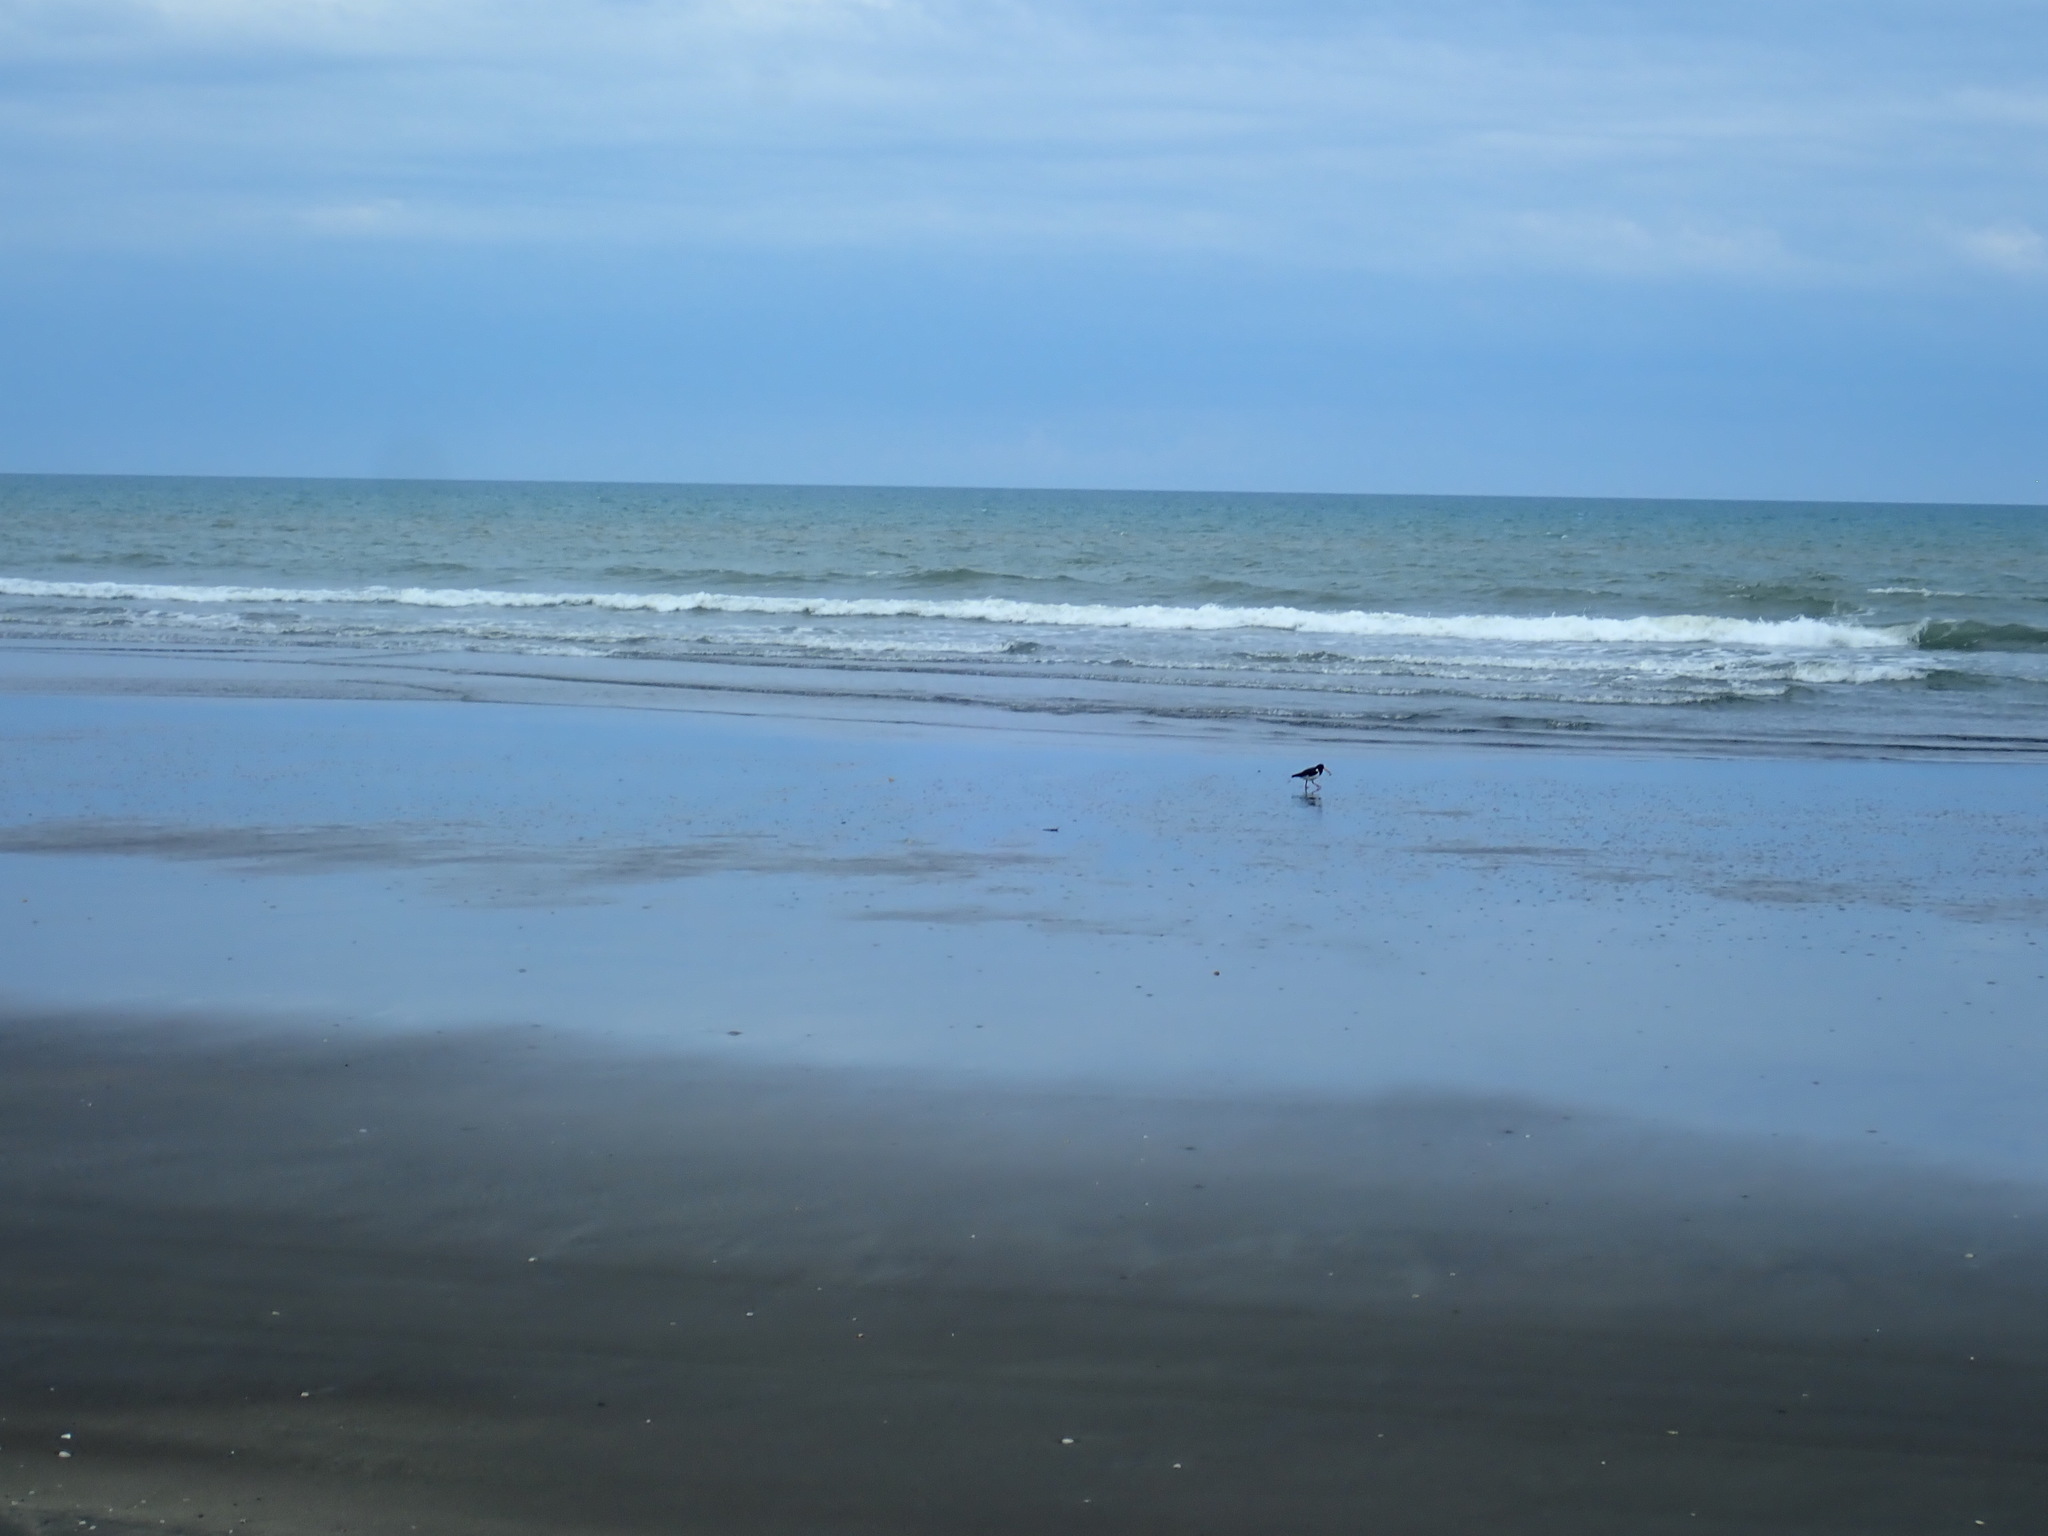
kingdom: Animalia
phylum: Chordata
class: Aves
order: Charadriiformes
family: Haematopodidae
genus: Haematopus
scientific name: Haematopus finschi
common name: South island oystercatcher
